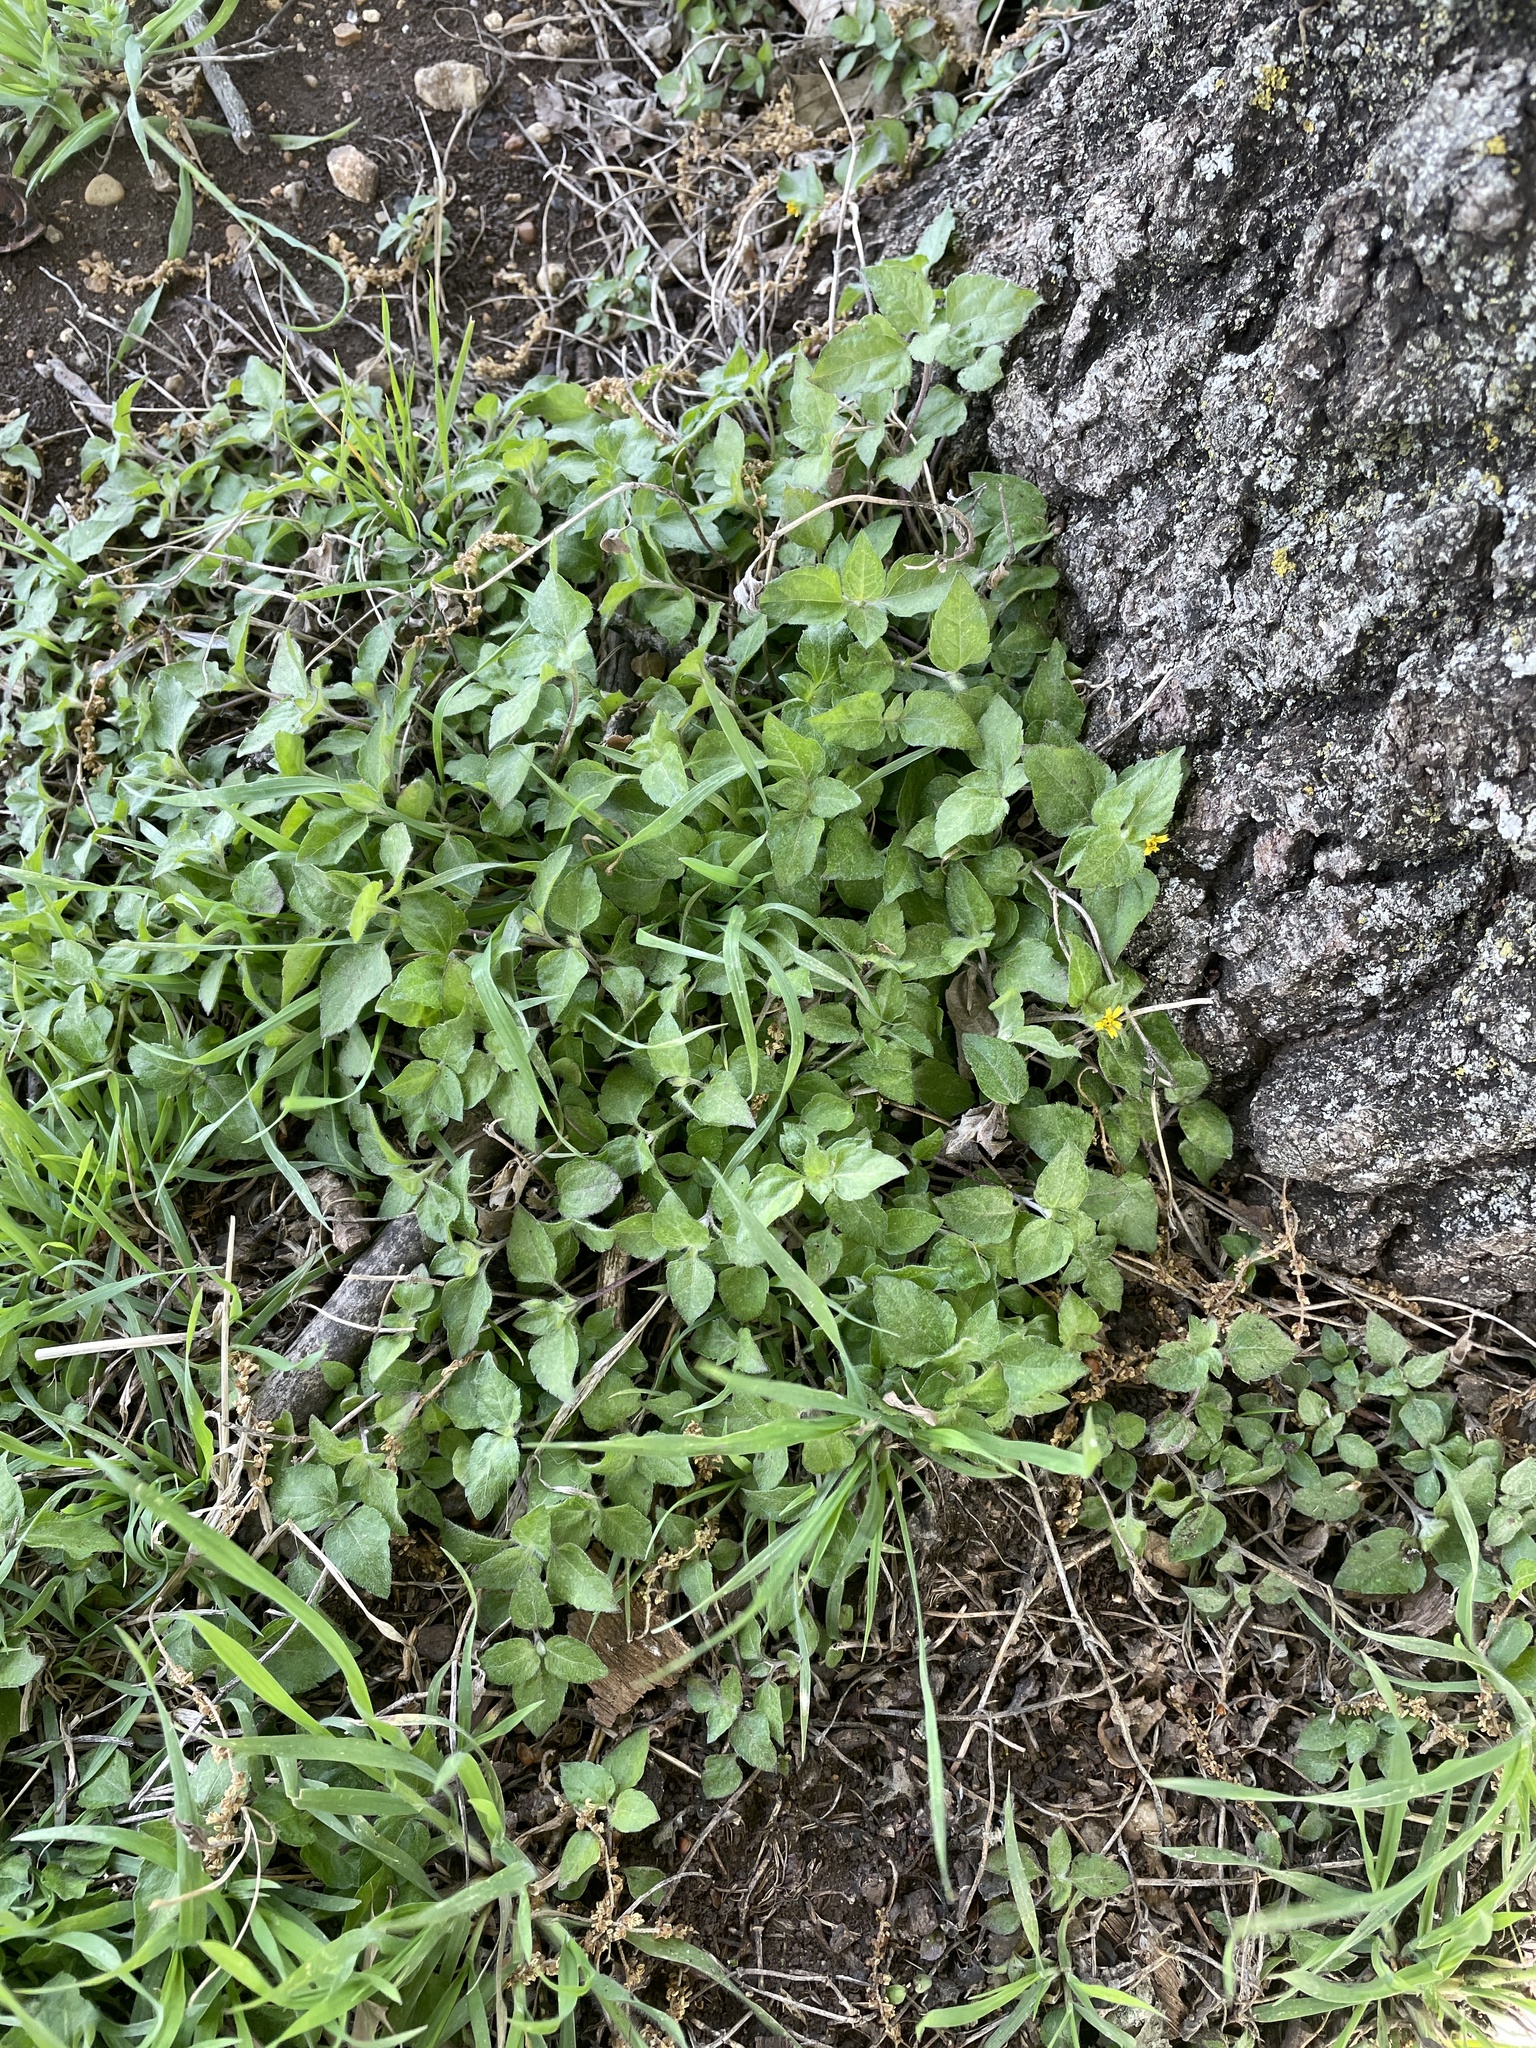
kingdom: Plantae
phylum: Tracheophyta
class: Magnoliopsida
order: Asterales
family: Asteraceae
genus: Calyptocarpus
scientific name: Calyptocarpus vialis
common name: Straggler daisy
